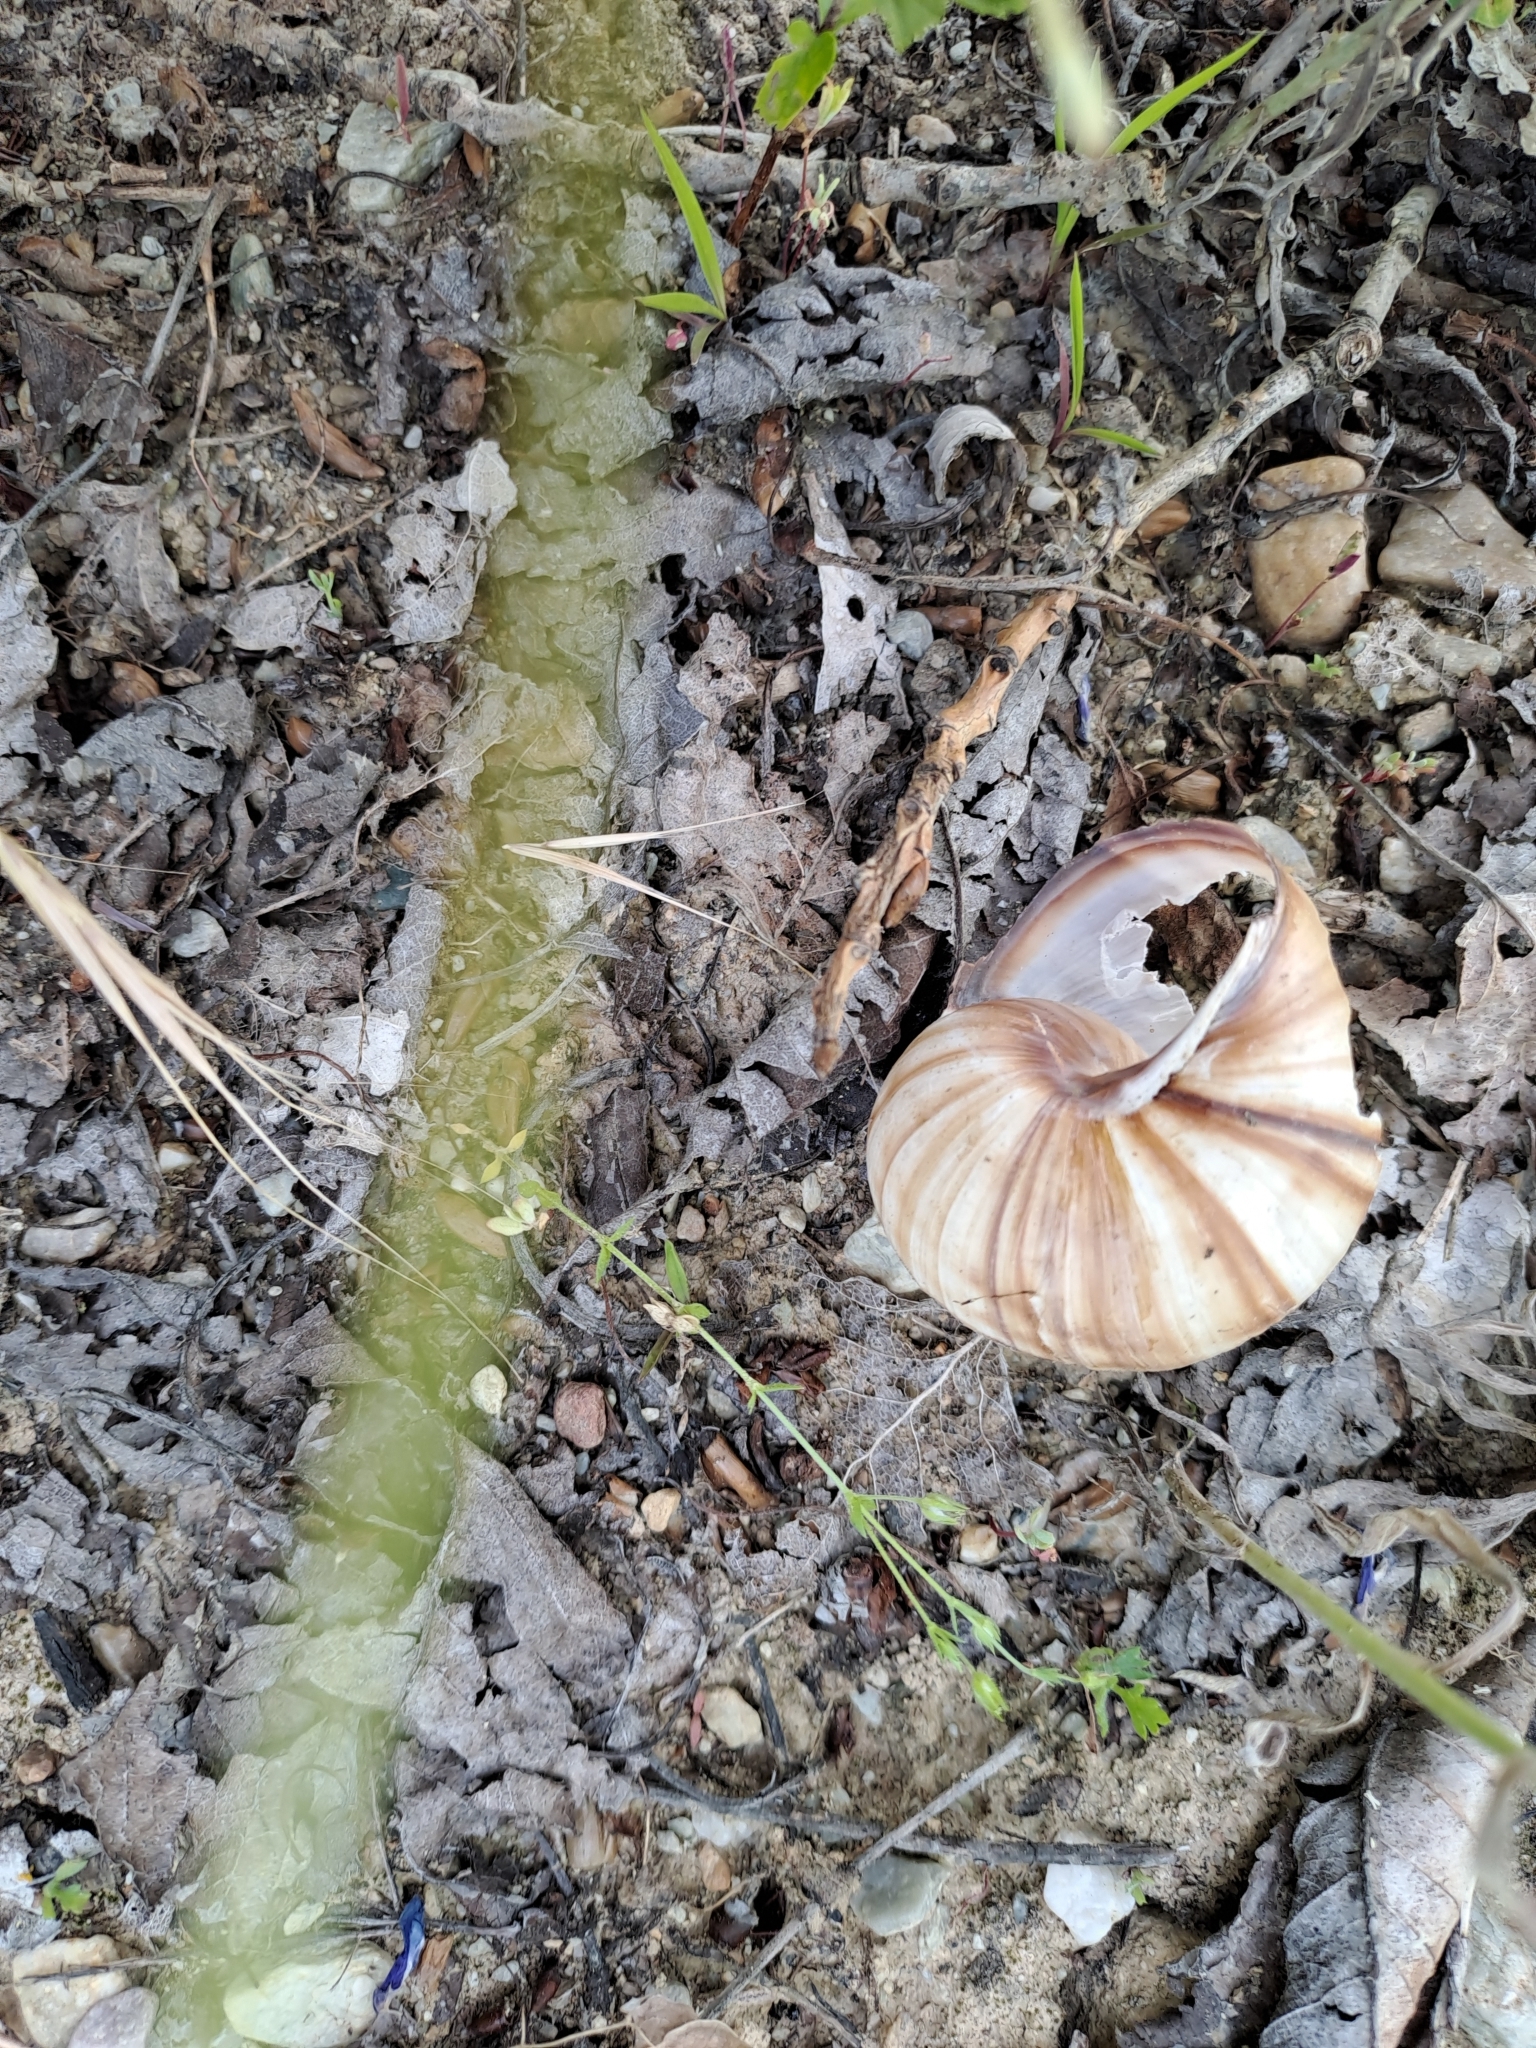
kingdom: Animalia
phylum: Mollusca
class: Gastropoda
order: Stylommatophora
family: Helicidae
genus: Helix
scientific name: Helix lucorum
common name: Turkish snail
